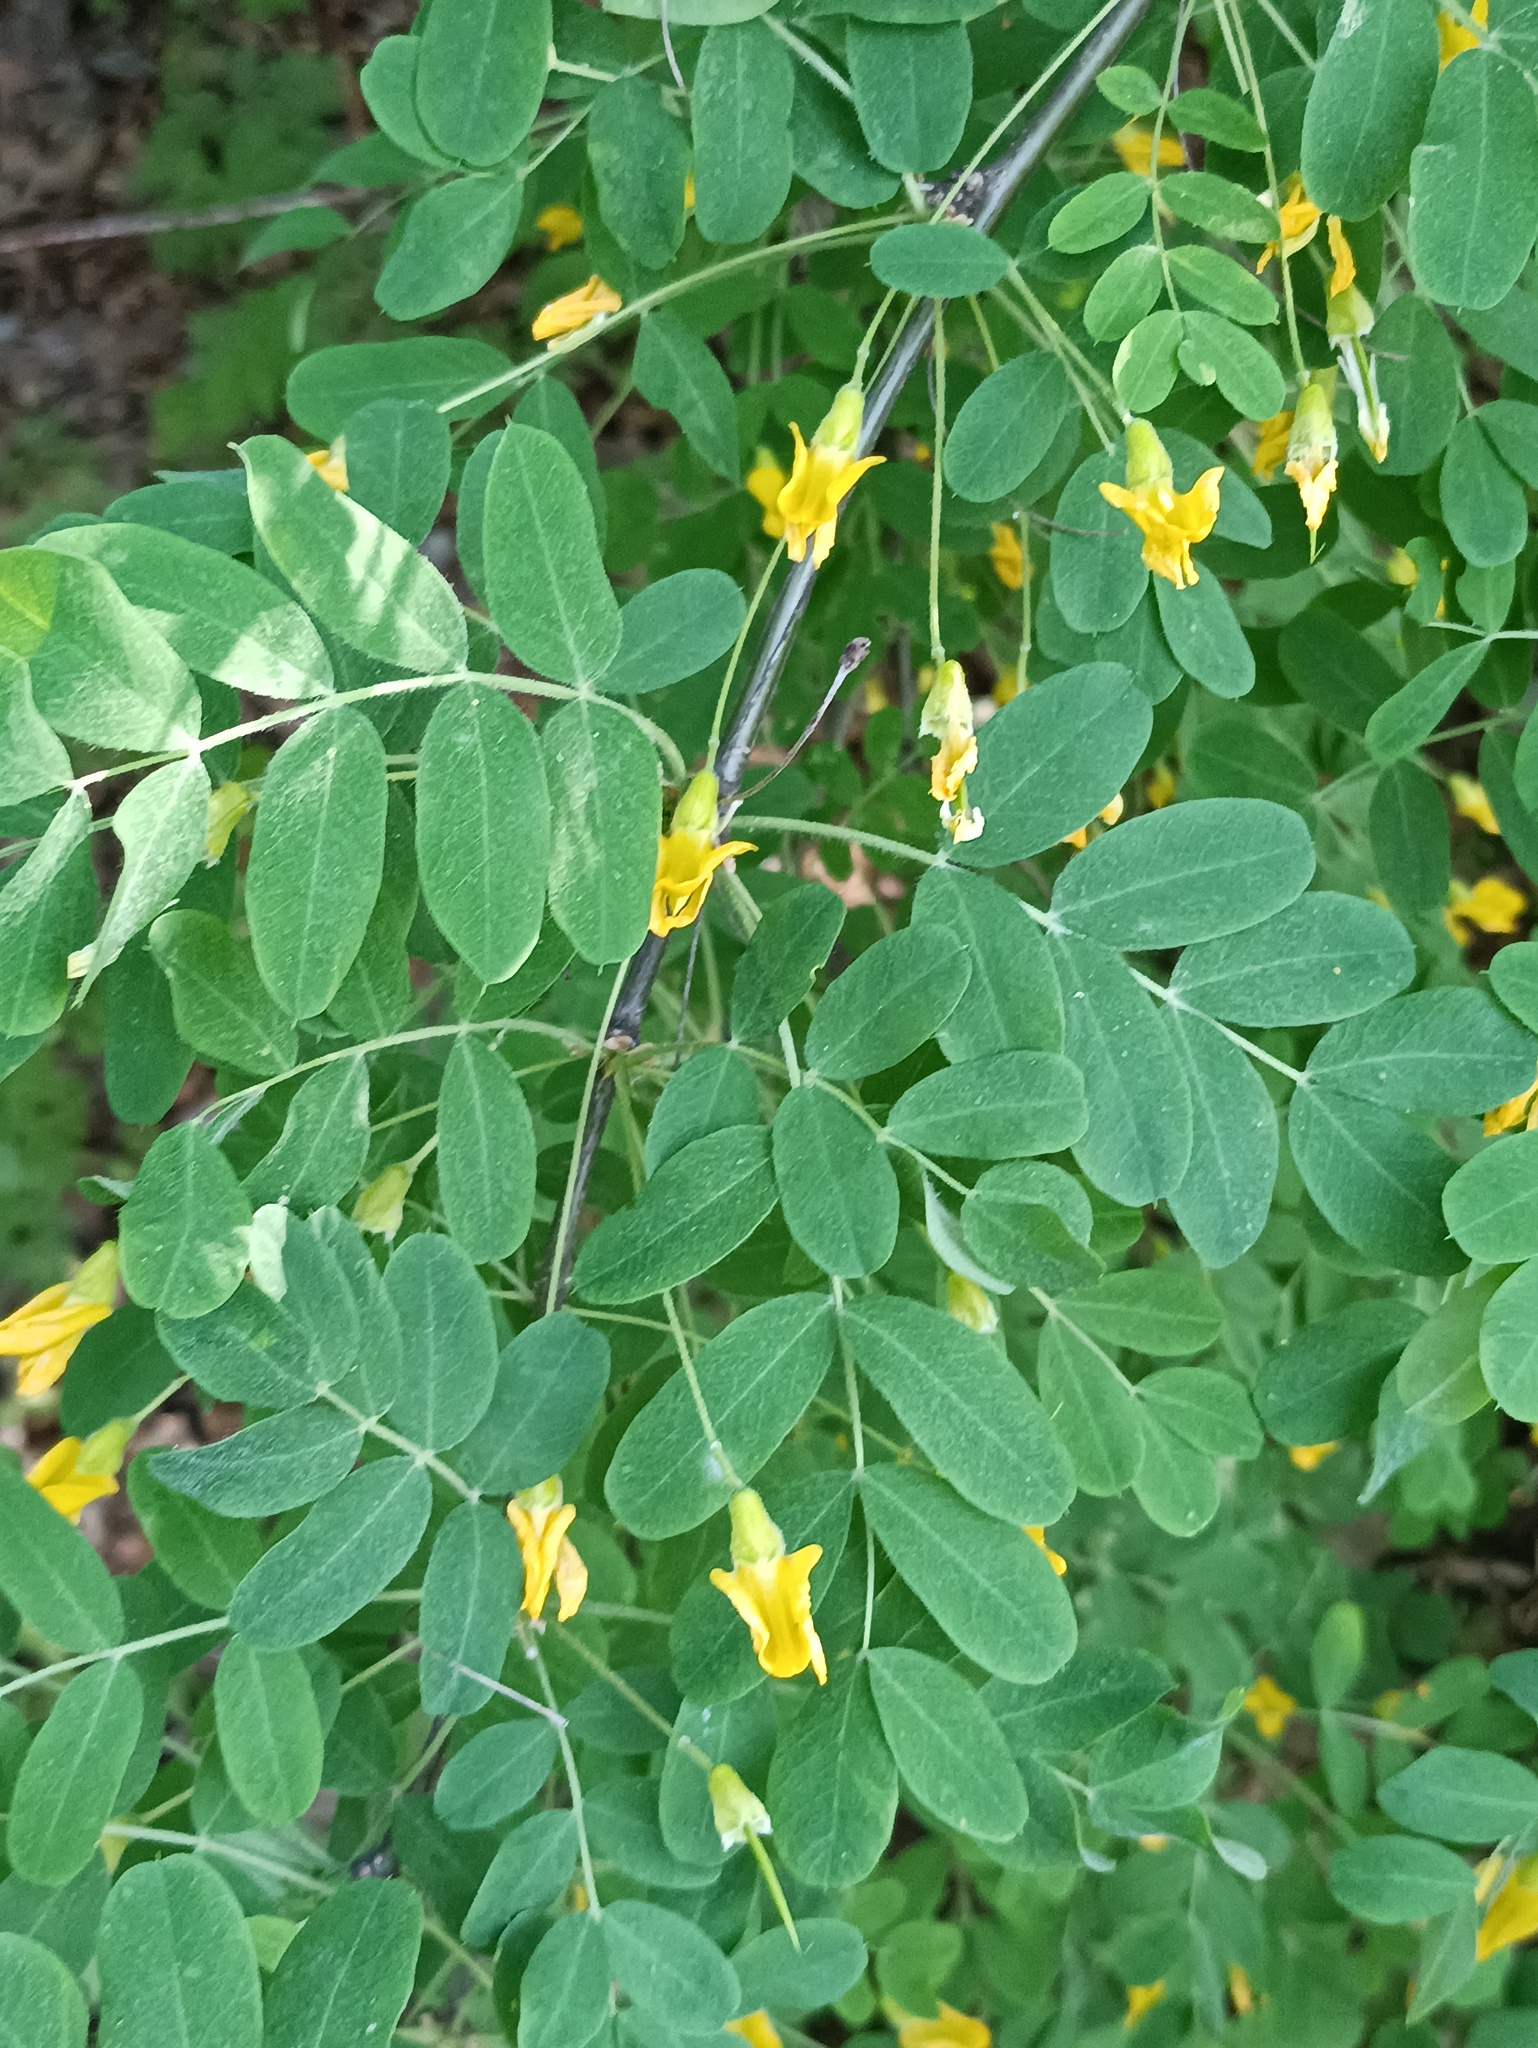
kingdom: Plantae
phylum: Tracheophyta
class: Magnoliopsida
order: Fabales
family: Fabaceae
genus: Caragana
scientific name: Caragana arborescens
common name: Siberian peashrub
